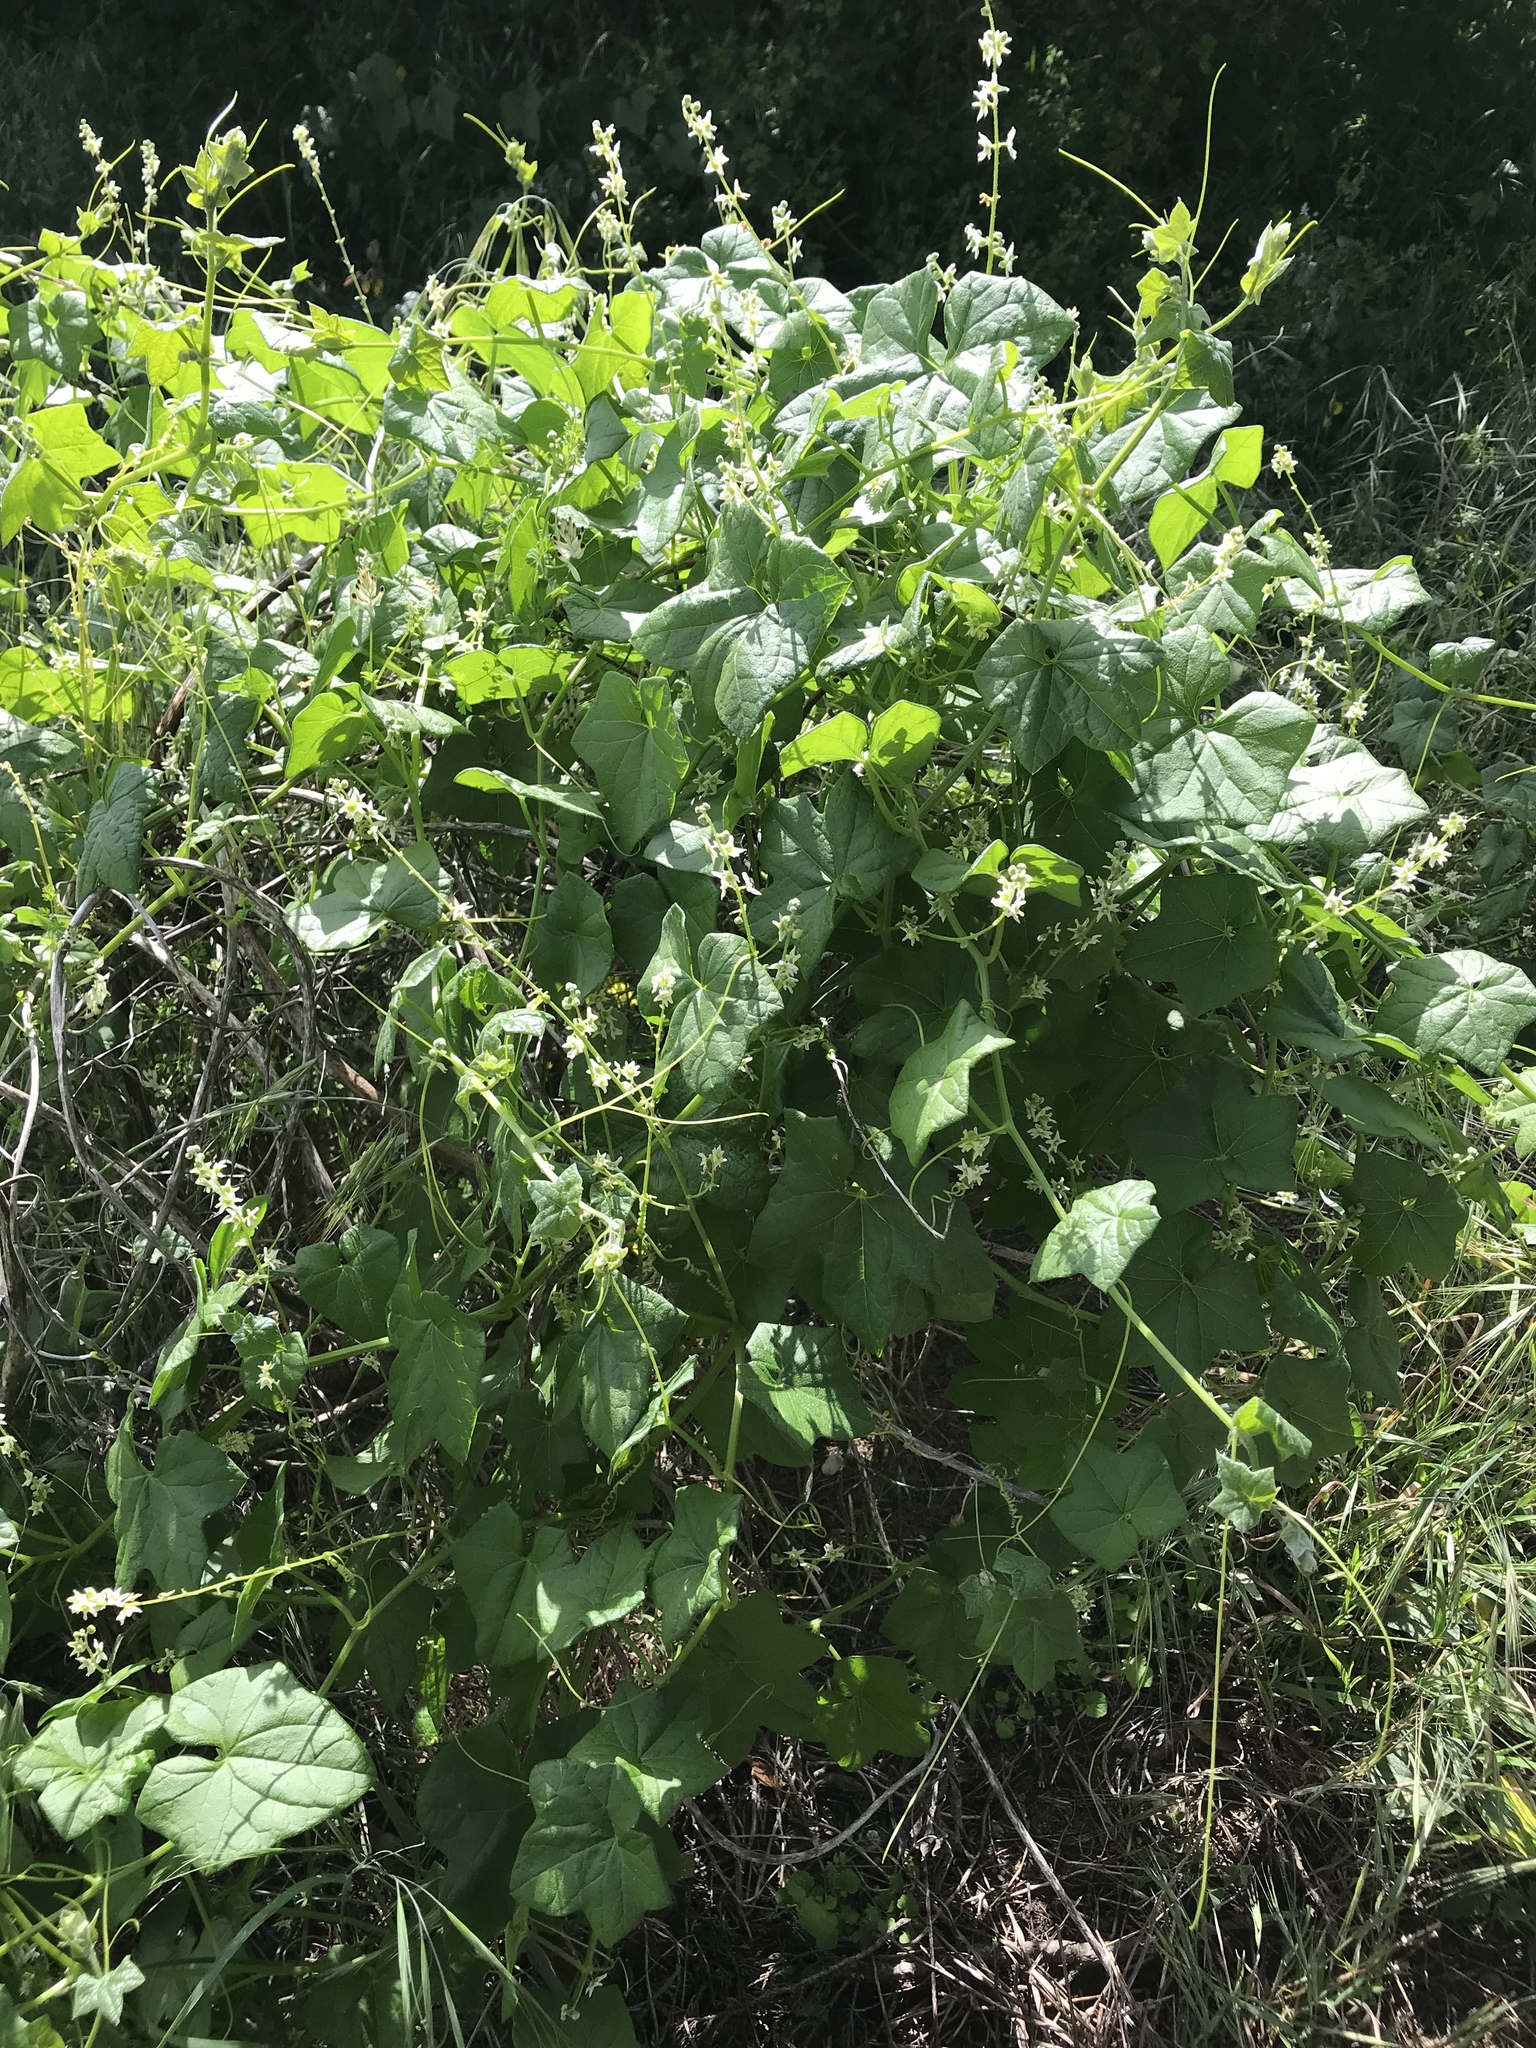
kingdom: Plantae
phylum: Tracheophyta
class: Magnoliopsida
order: Cucurbitales
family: Cucurbitaceae
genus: Marah
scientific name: Marah fabacea
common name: California manroot
